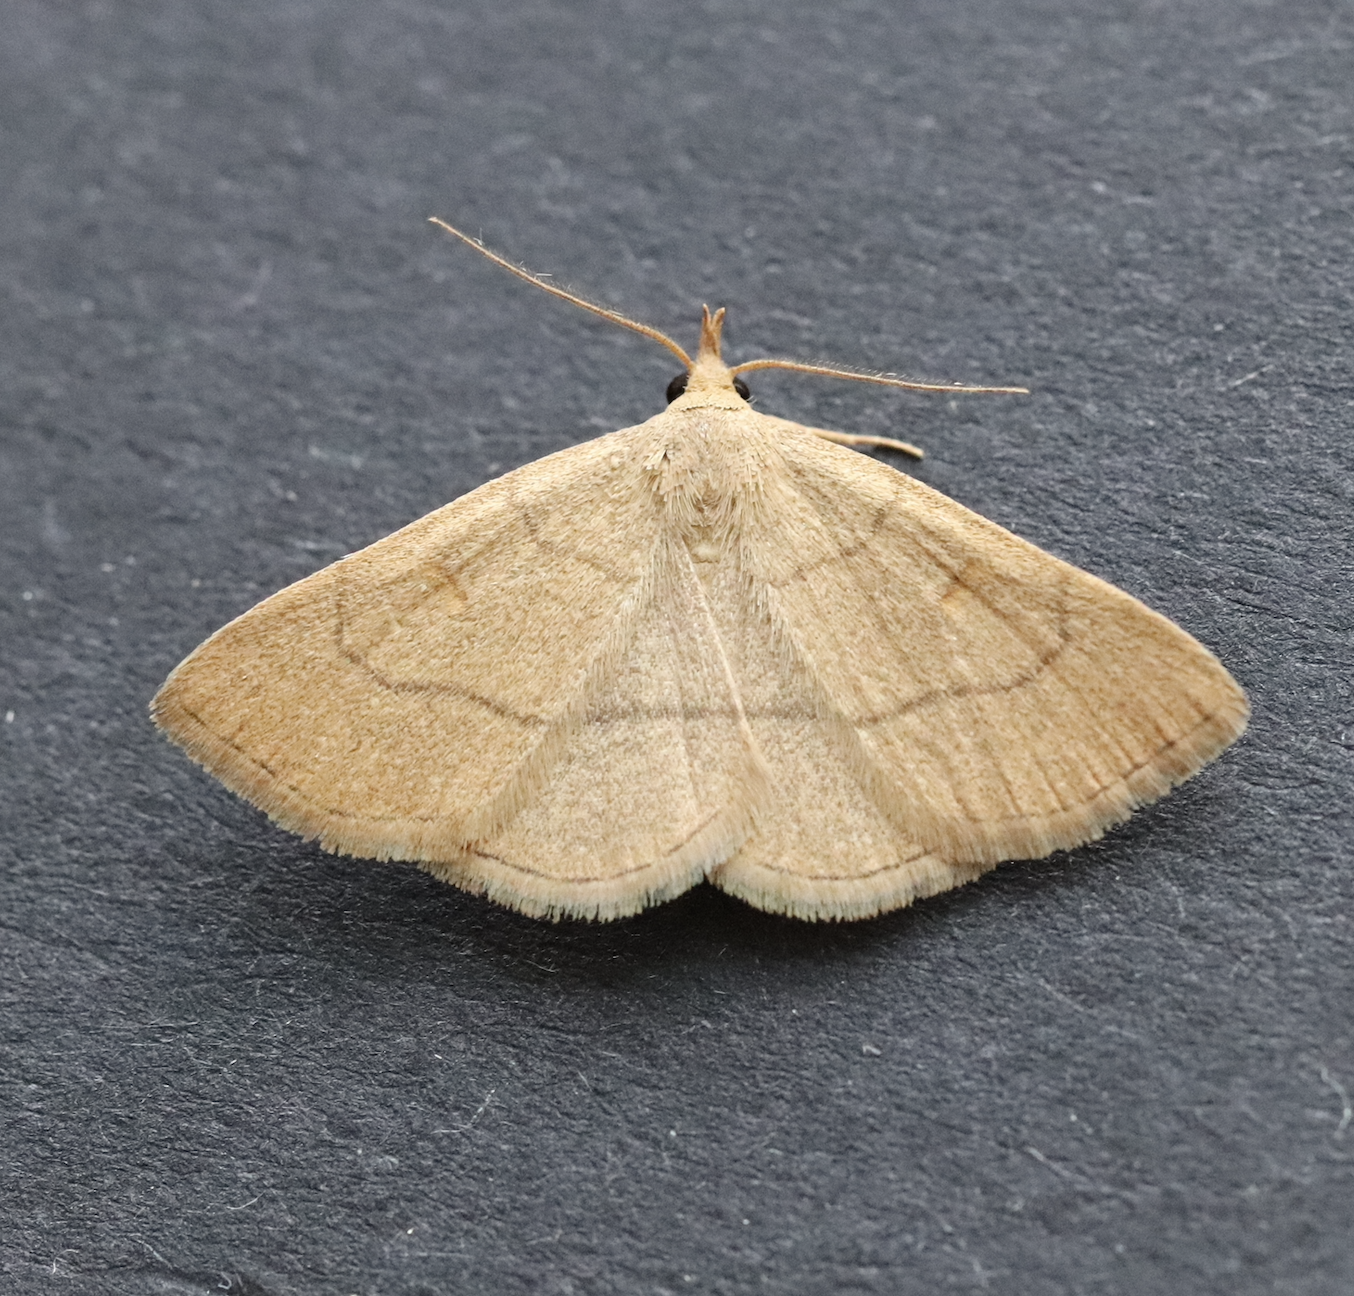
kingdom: Animalia
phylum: Arthropoda
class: Insecta
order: Lepidoptera
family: Erebidae
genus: Paracolax
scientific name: Paracolax tristalis
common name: Clay fan-foot
